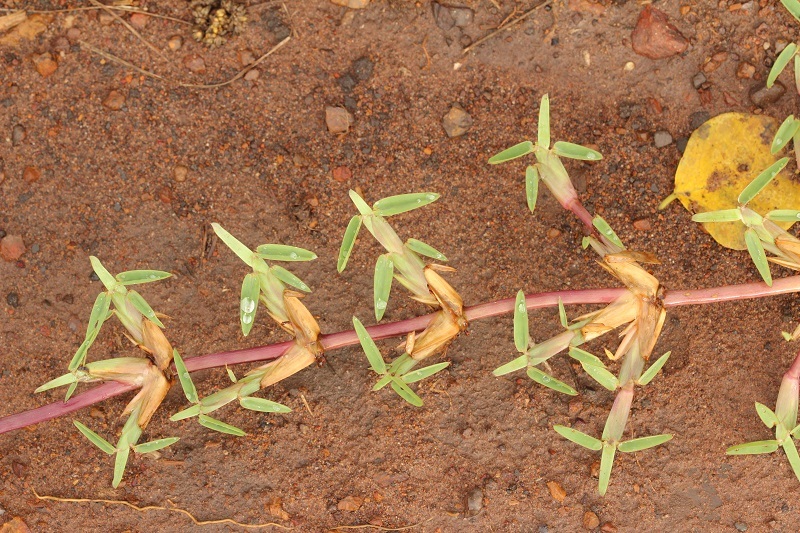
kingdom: Plantae
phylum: Tracheophyta
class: Liliopsida
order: Poales
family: Poaceae
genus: Stenotaphrum
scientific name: Stenotaphrum secundatum
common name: St. augustine grass
